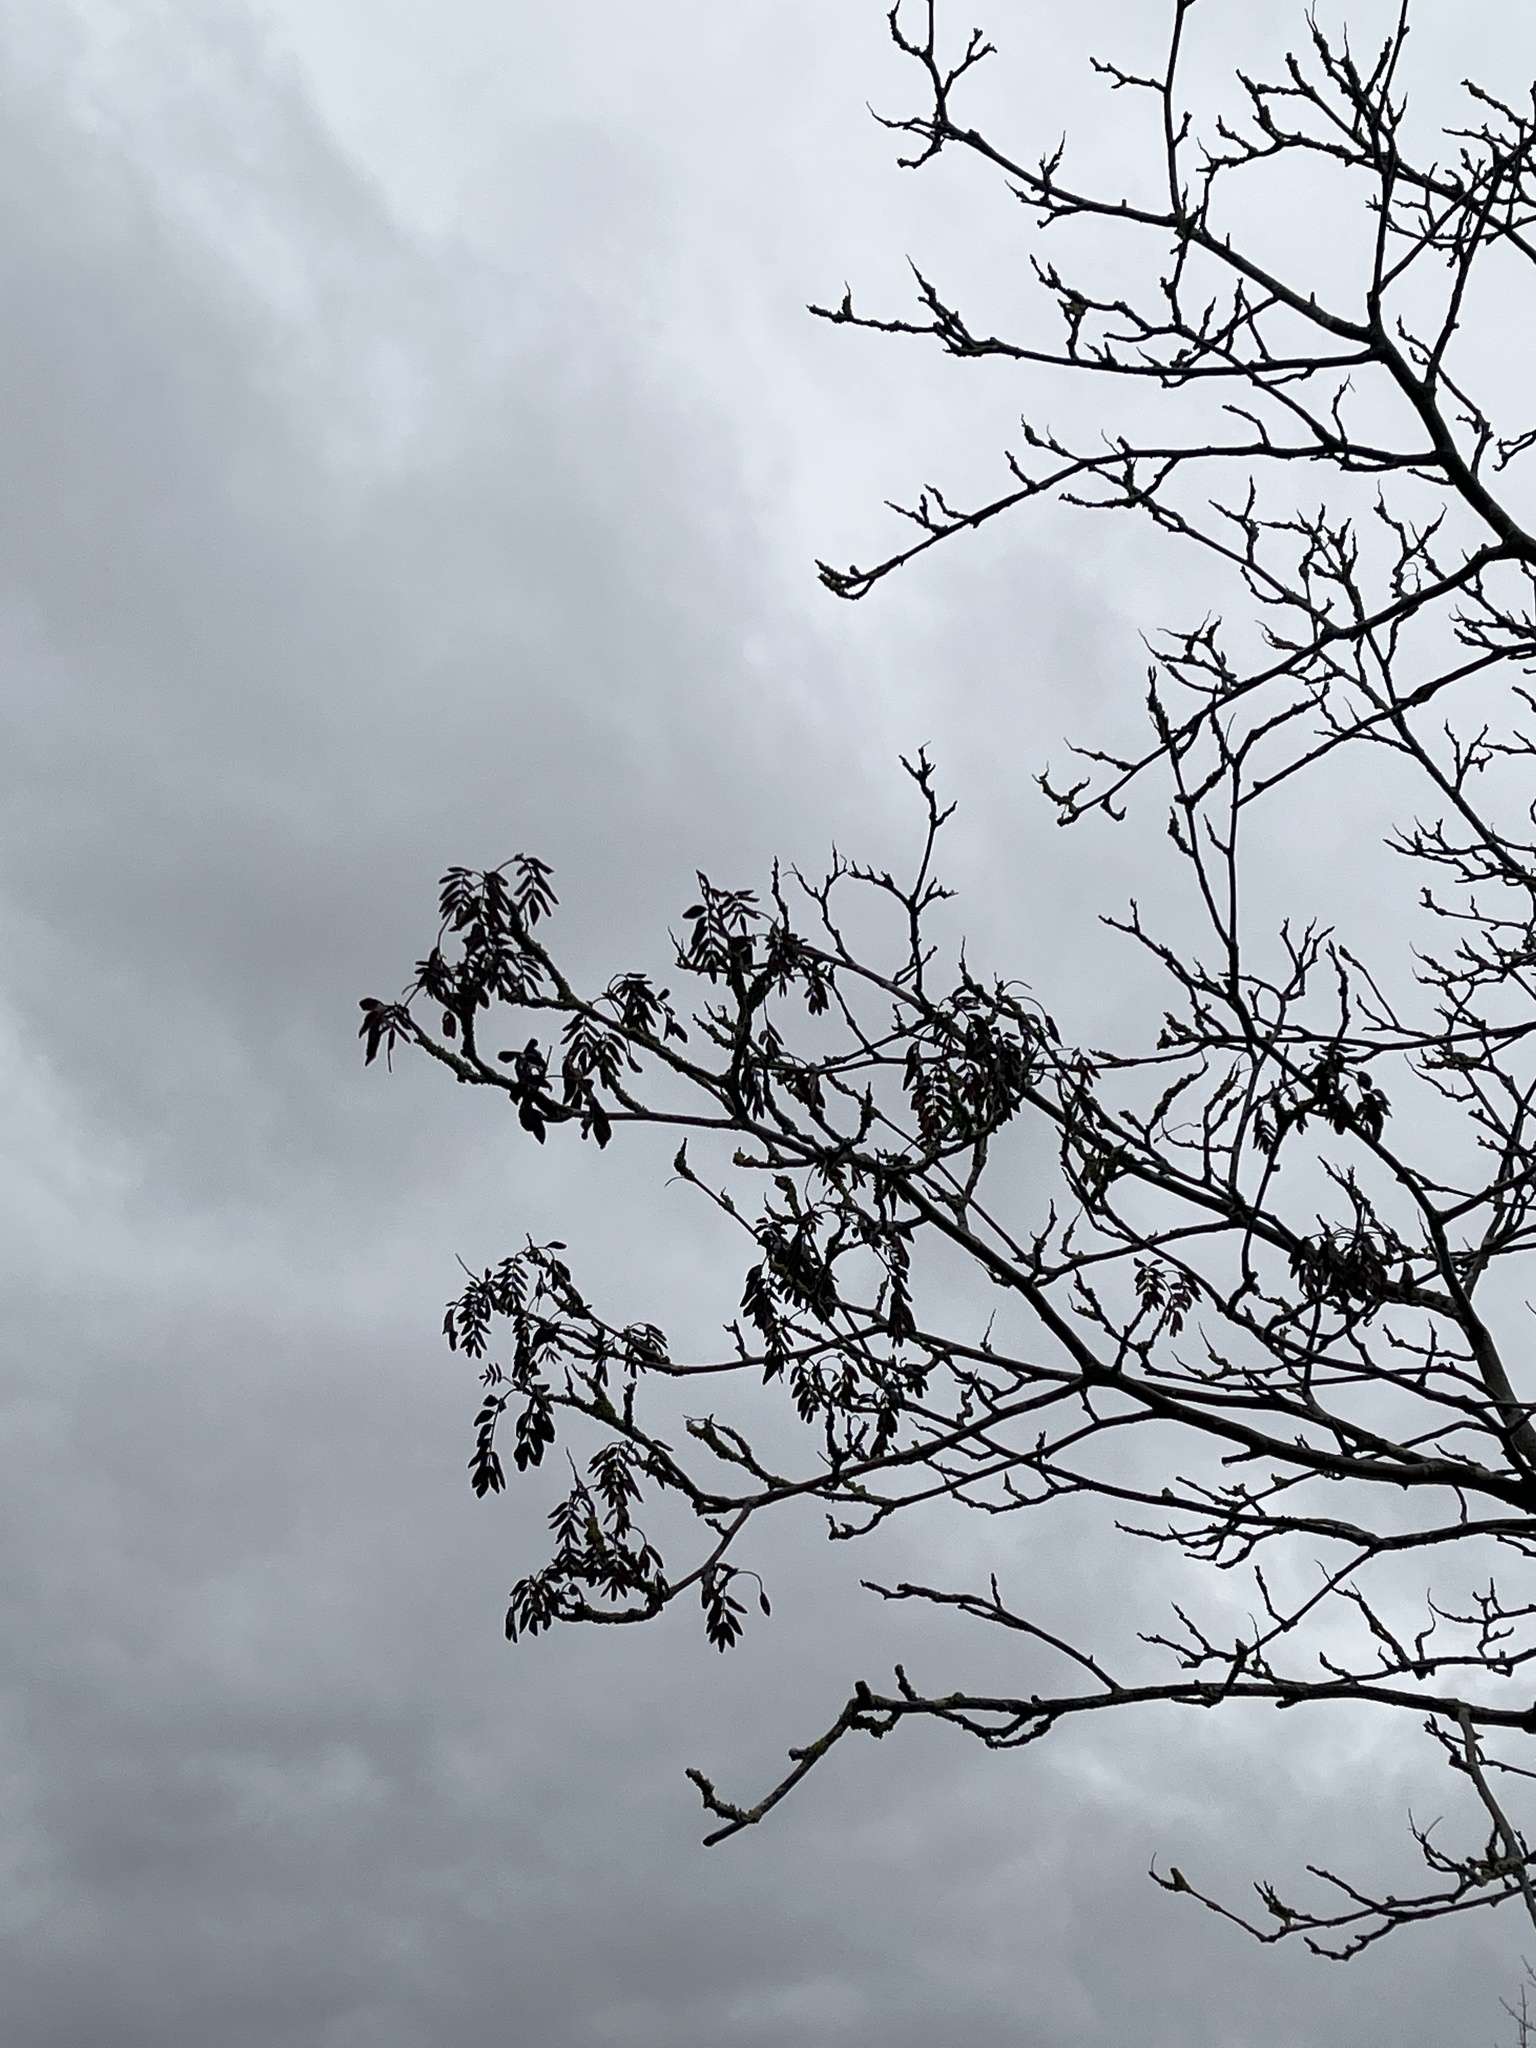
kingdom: Plantae
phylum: Tracheophyta
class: Magnoliopsida
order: Rosales
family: Rosaceae
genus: Sorbus
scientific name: Sorbus aucuparia
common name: Rowan
